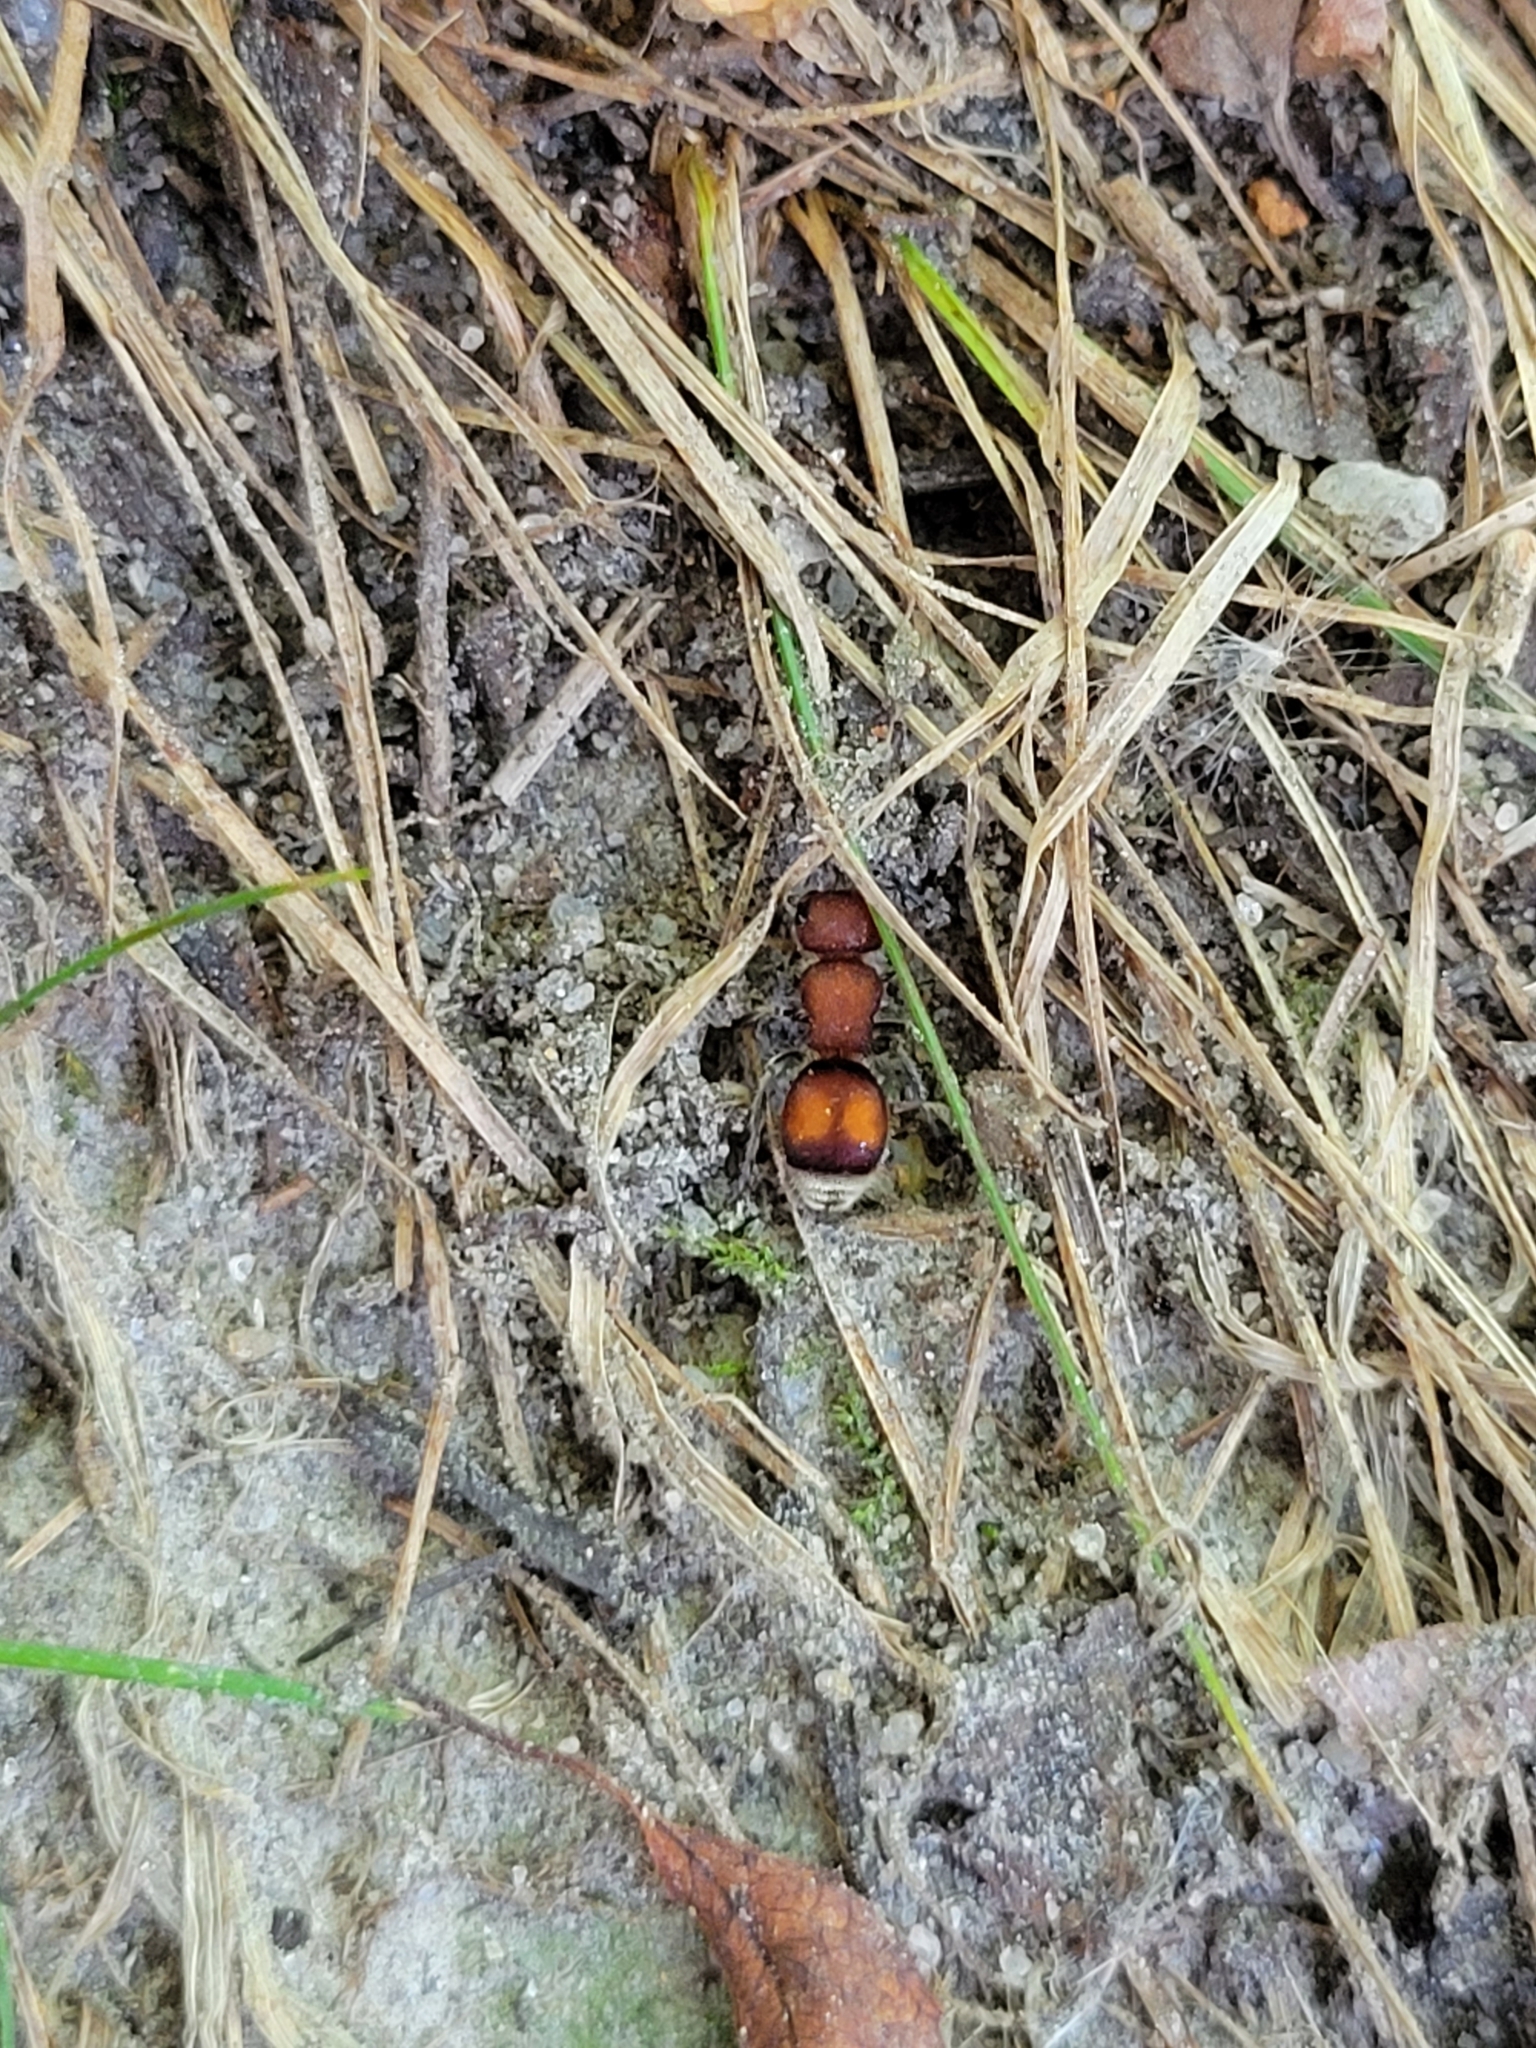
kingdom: Animalia
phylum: Arthropoda
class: Insecta
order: Hymenoptera
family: Mutillidae
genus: Pseudomethoca
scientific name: Pseudomethoca
